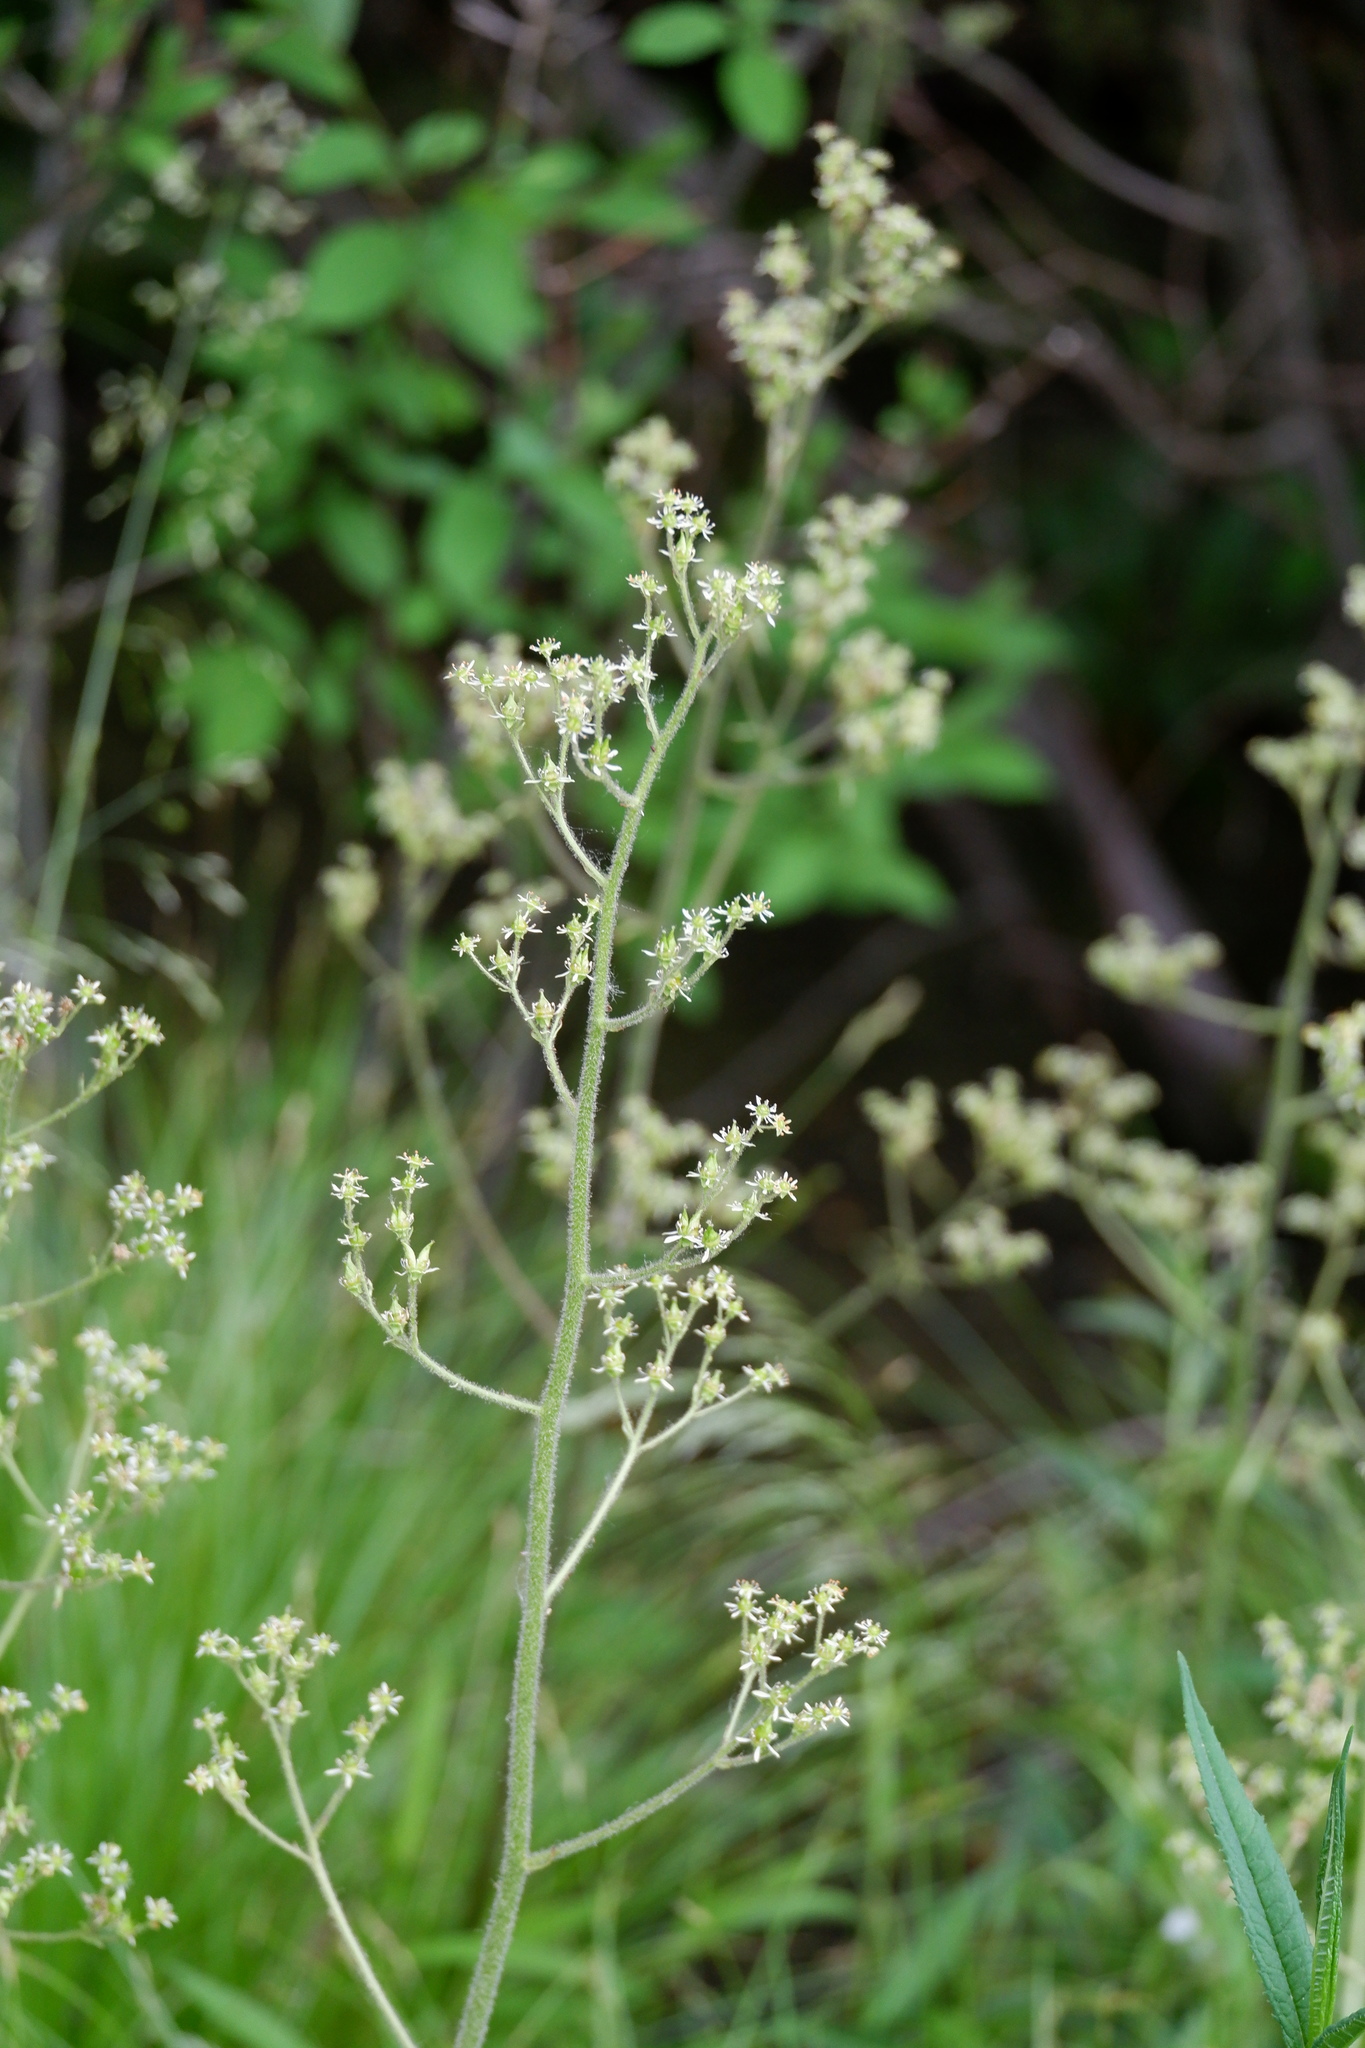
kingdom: Plantae
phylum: Tracheophyta
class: Magnoliopsida
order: Saxifragales
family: Saxifragaceae
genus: Micranthes
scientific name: Micranthes pensylvanica
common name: Marsh saxifrage
